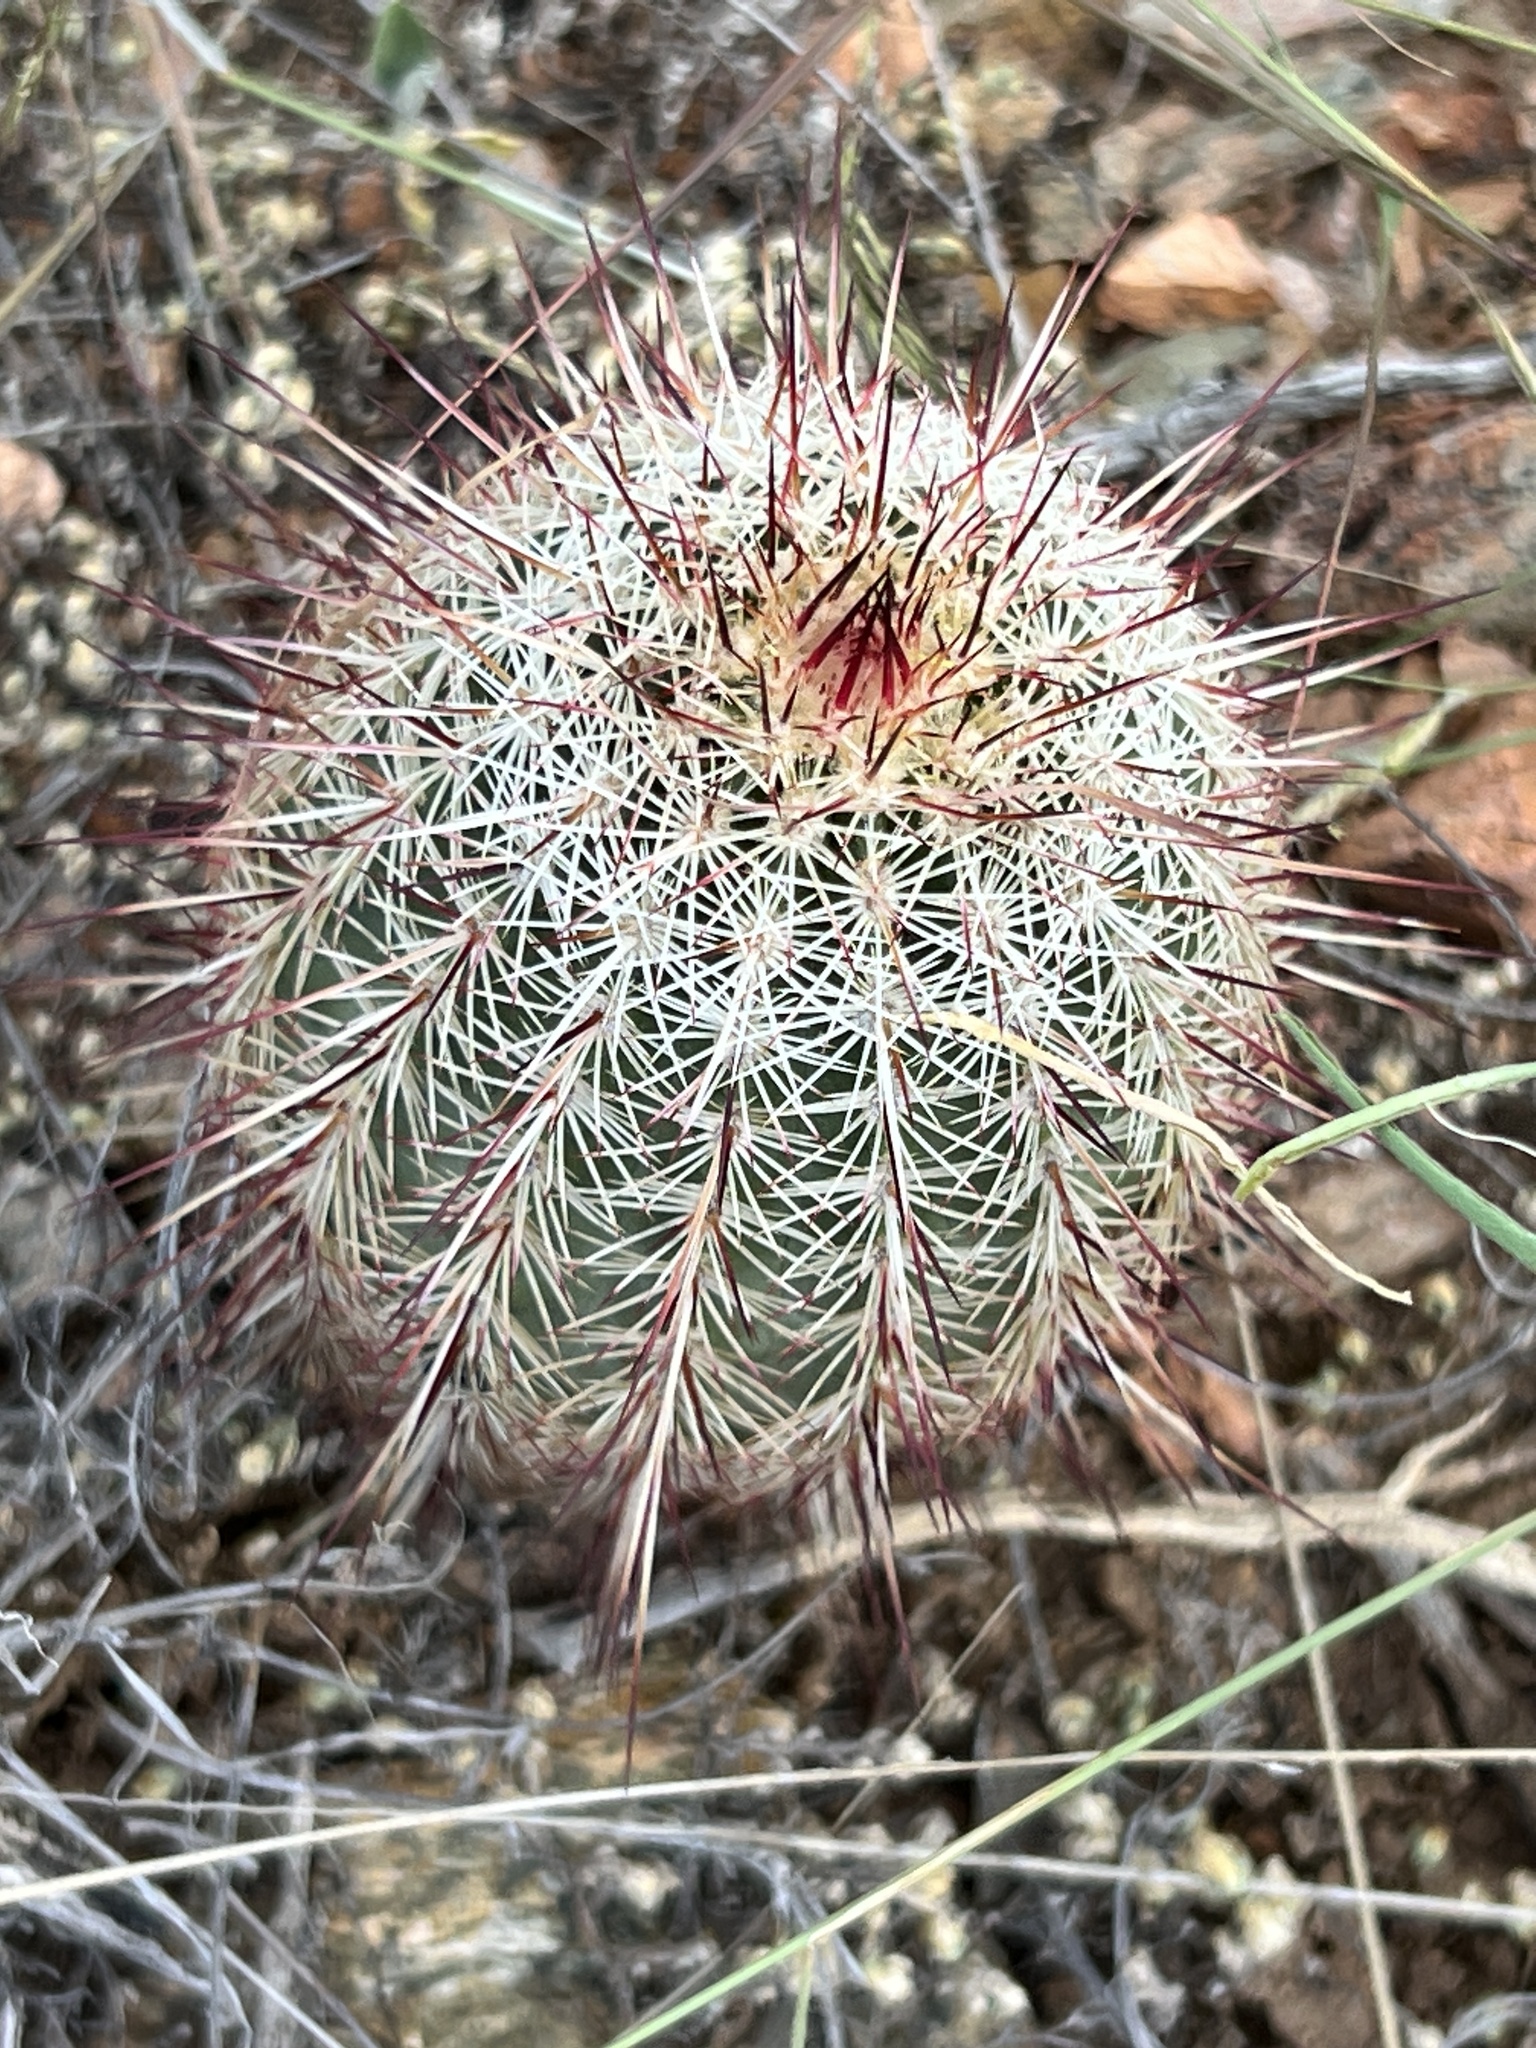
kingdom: Plantae
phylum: Tracheophyta
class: Magnoliopsida
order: Caryophyllales
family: Cactaceae
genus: Echinocereus
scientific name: Echinocereus viridiflorus
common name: Nylon hedgehog cactus
